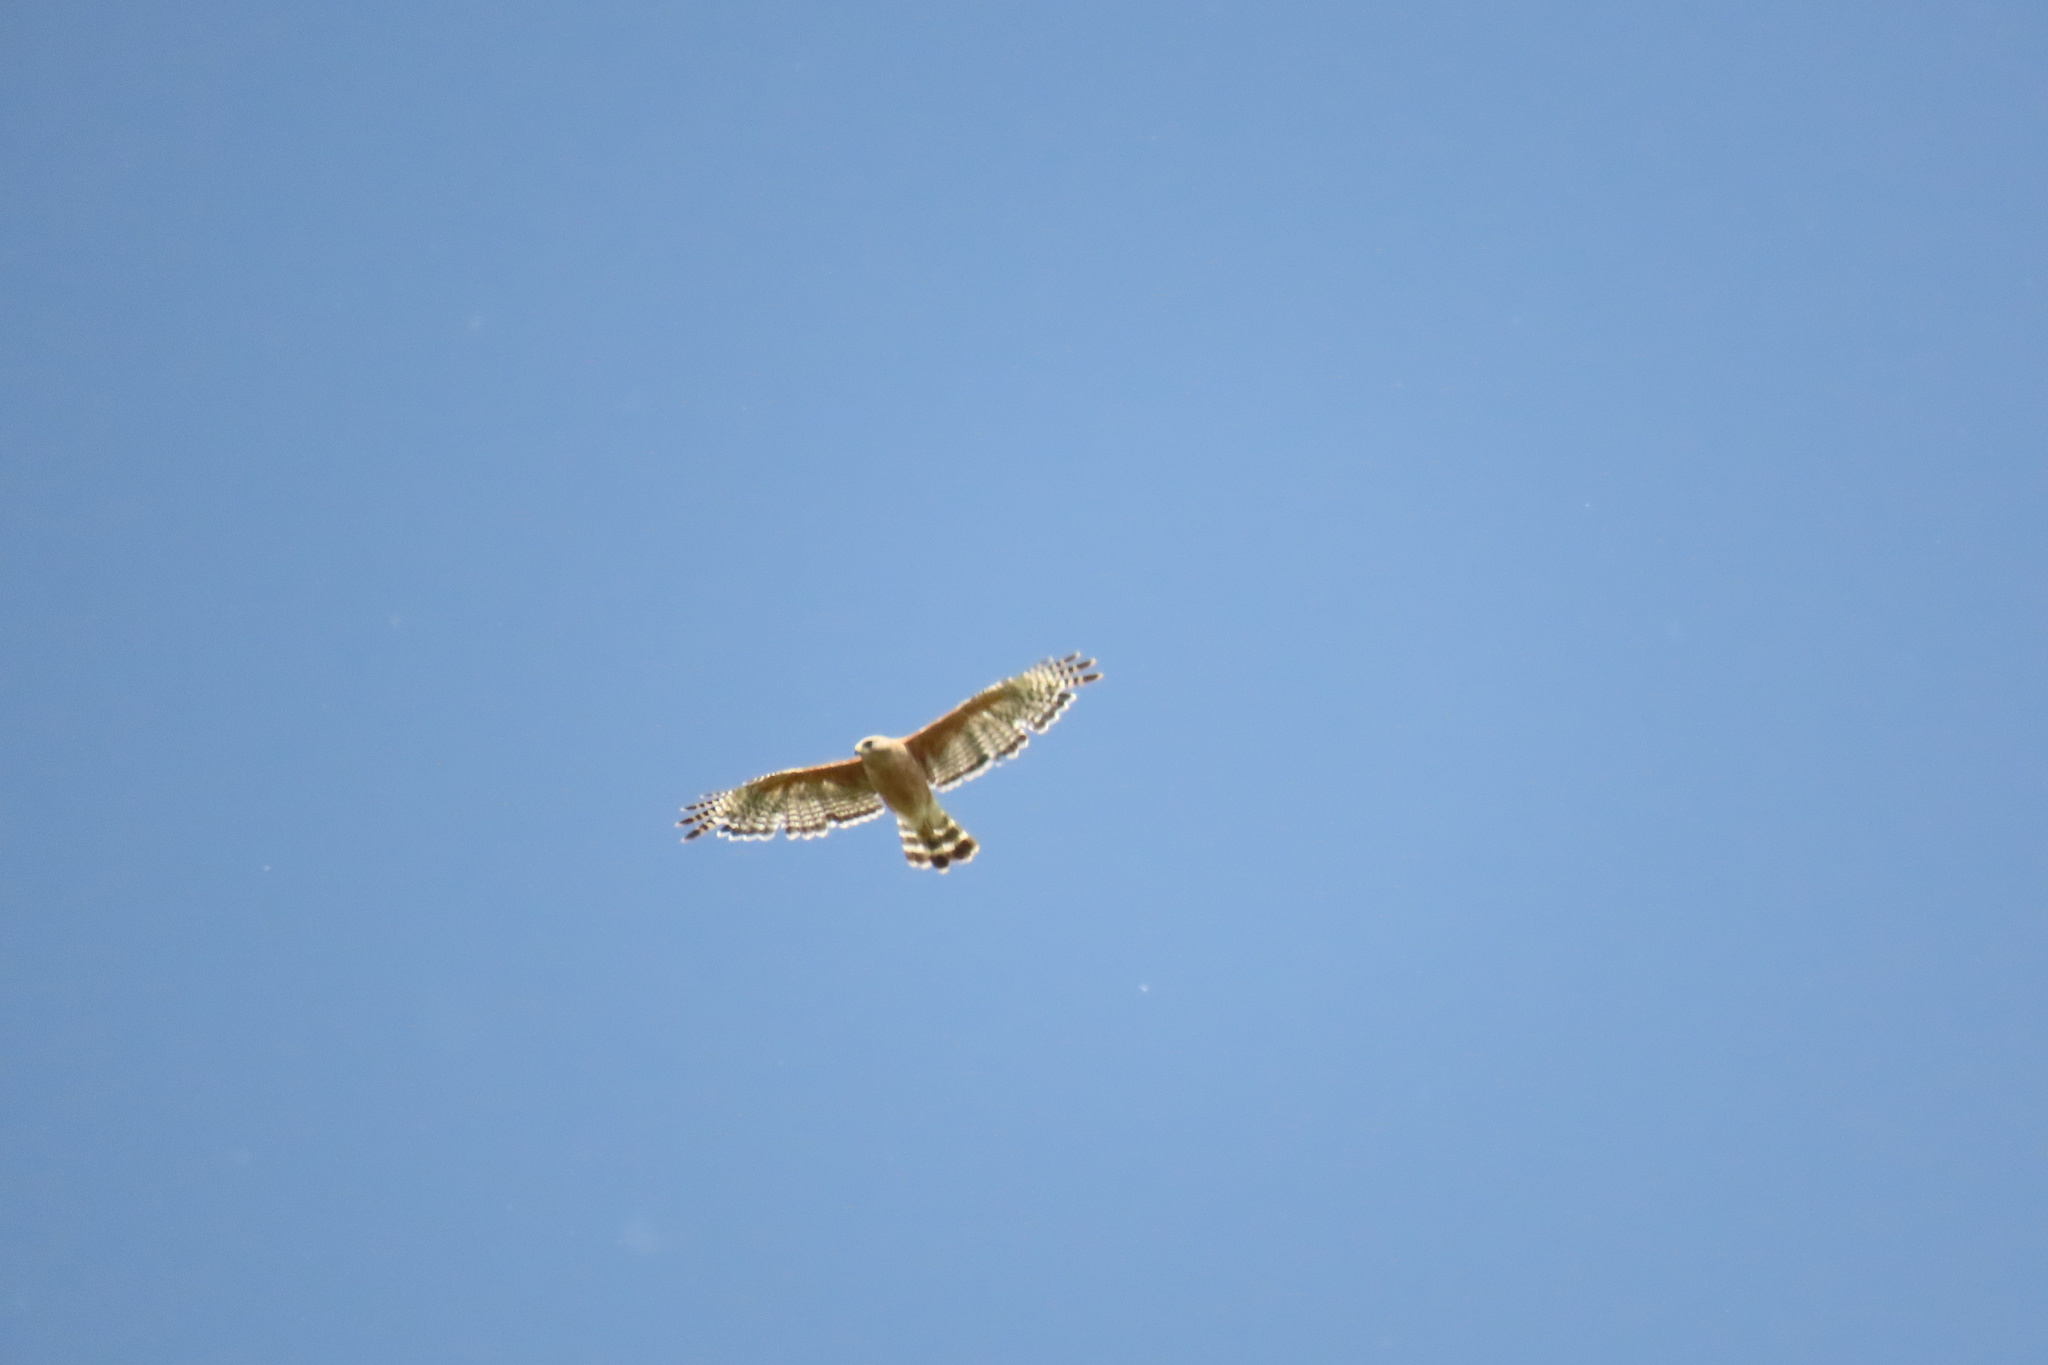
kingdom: Animalia
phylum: Chordata
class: Aves
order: Accipitriformes
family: Accipitridae
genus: Buteo
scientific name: Buteo lineatus
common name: Red-shouldered hawk
